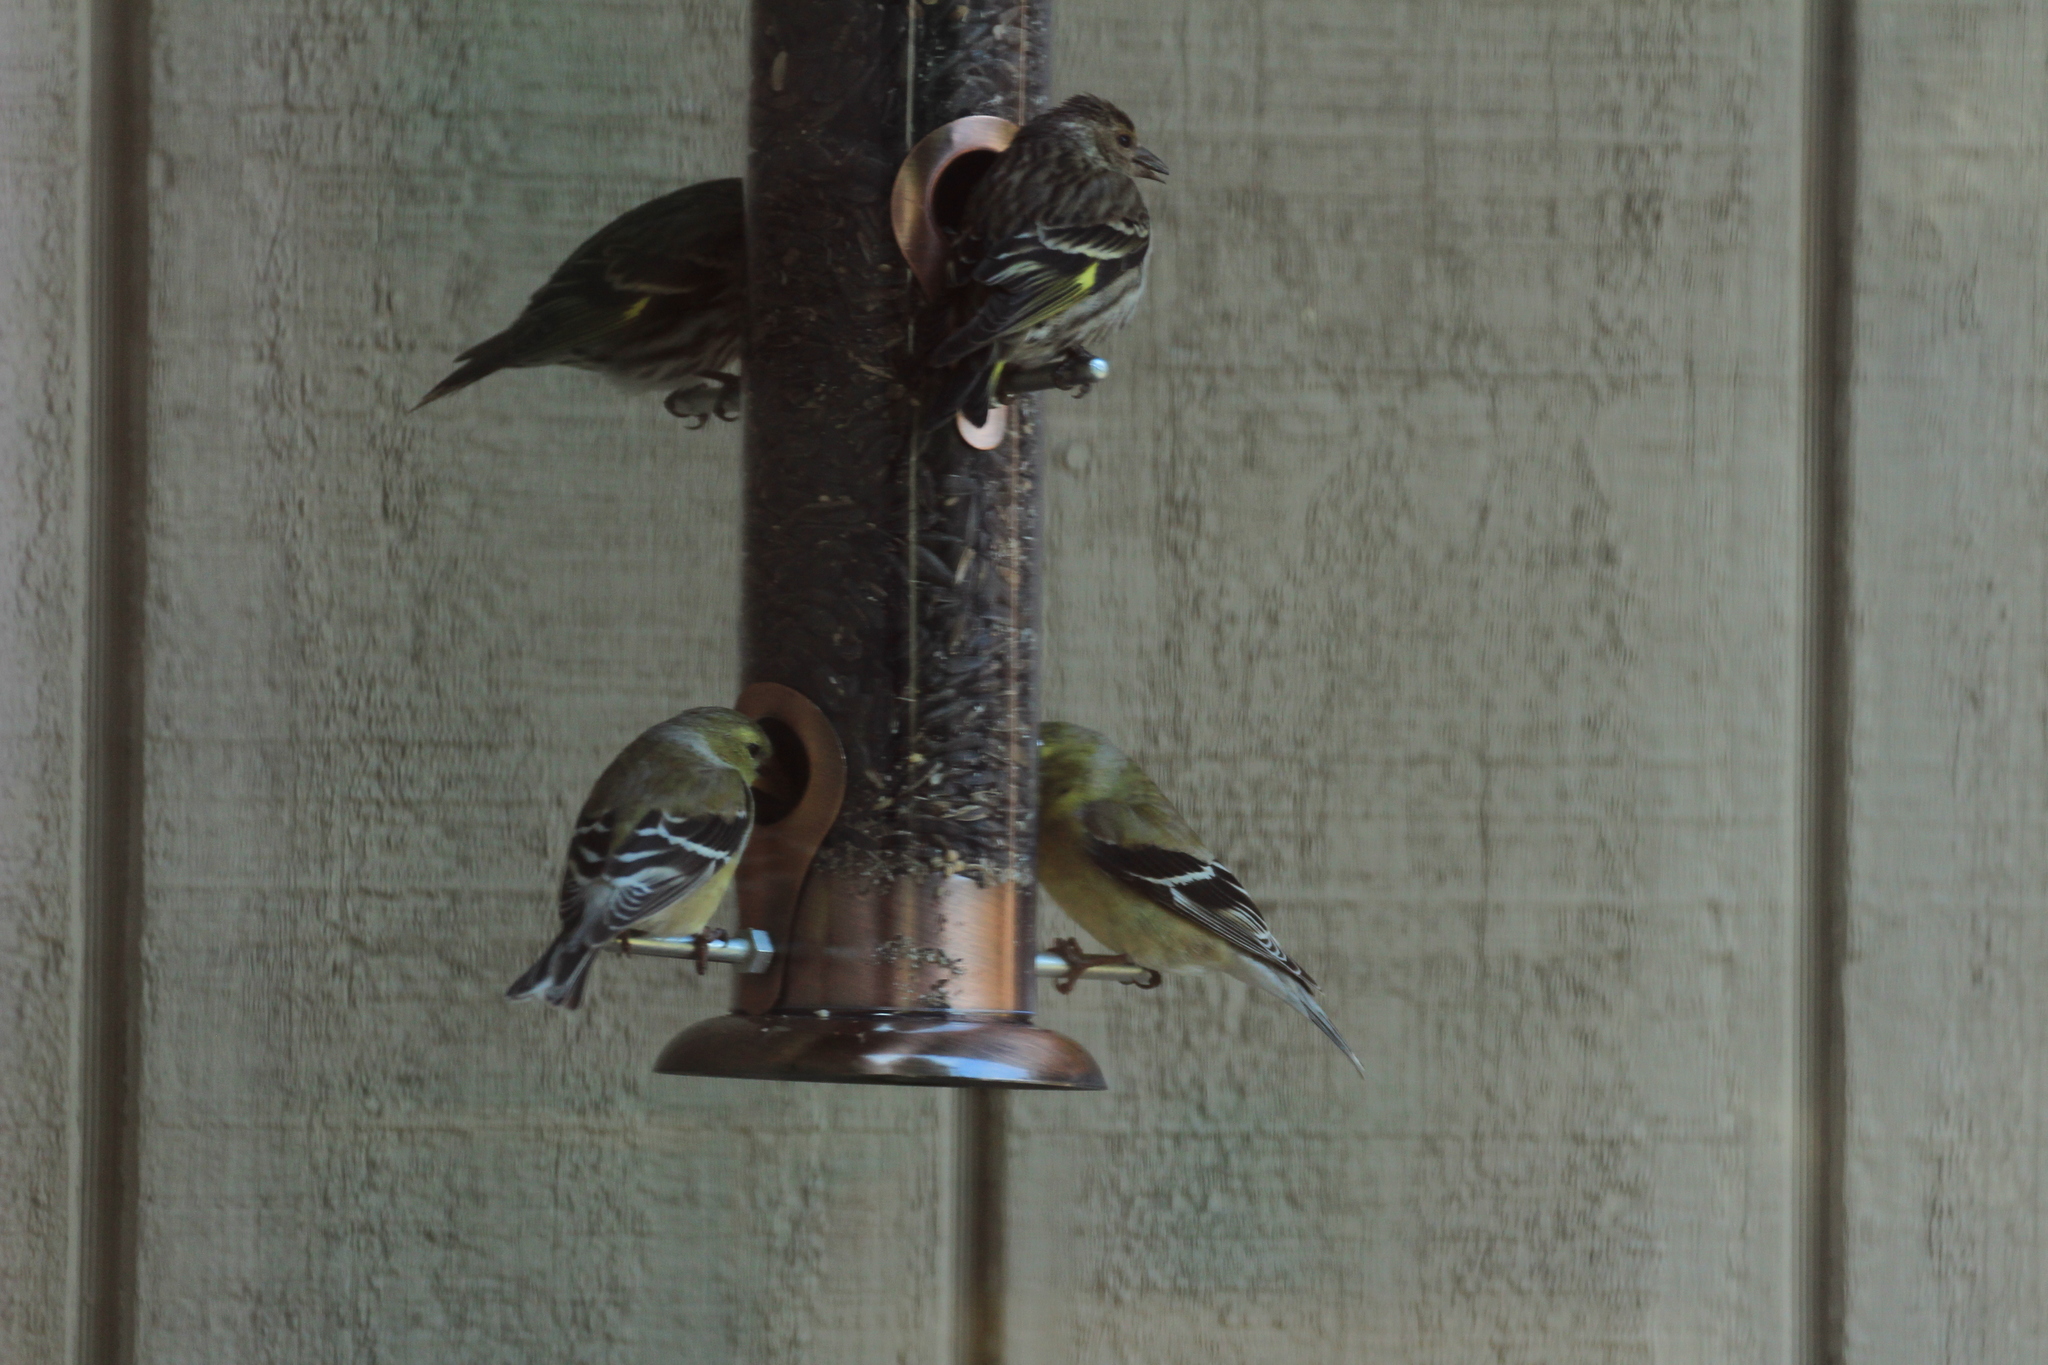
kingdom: Animalia
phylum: Chordata
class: Aves
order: Passeriformes
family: Fringillidae
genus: Spinus
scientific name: Spinus pinus
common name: Pine siskin
